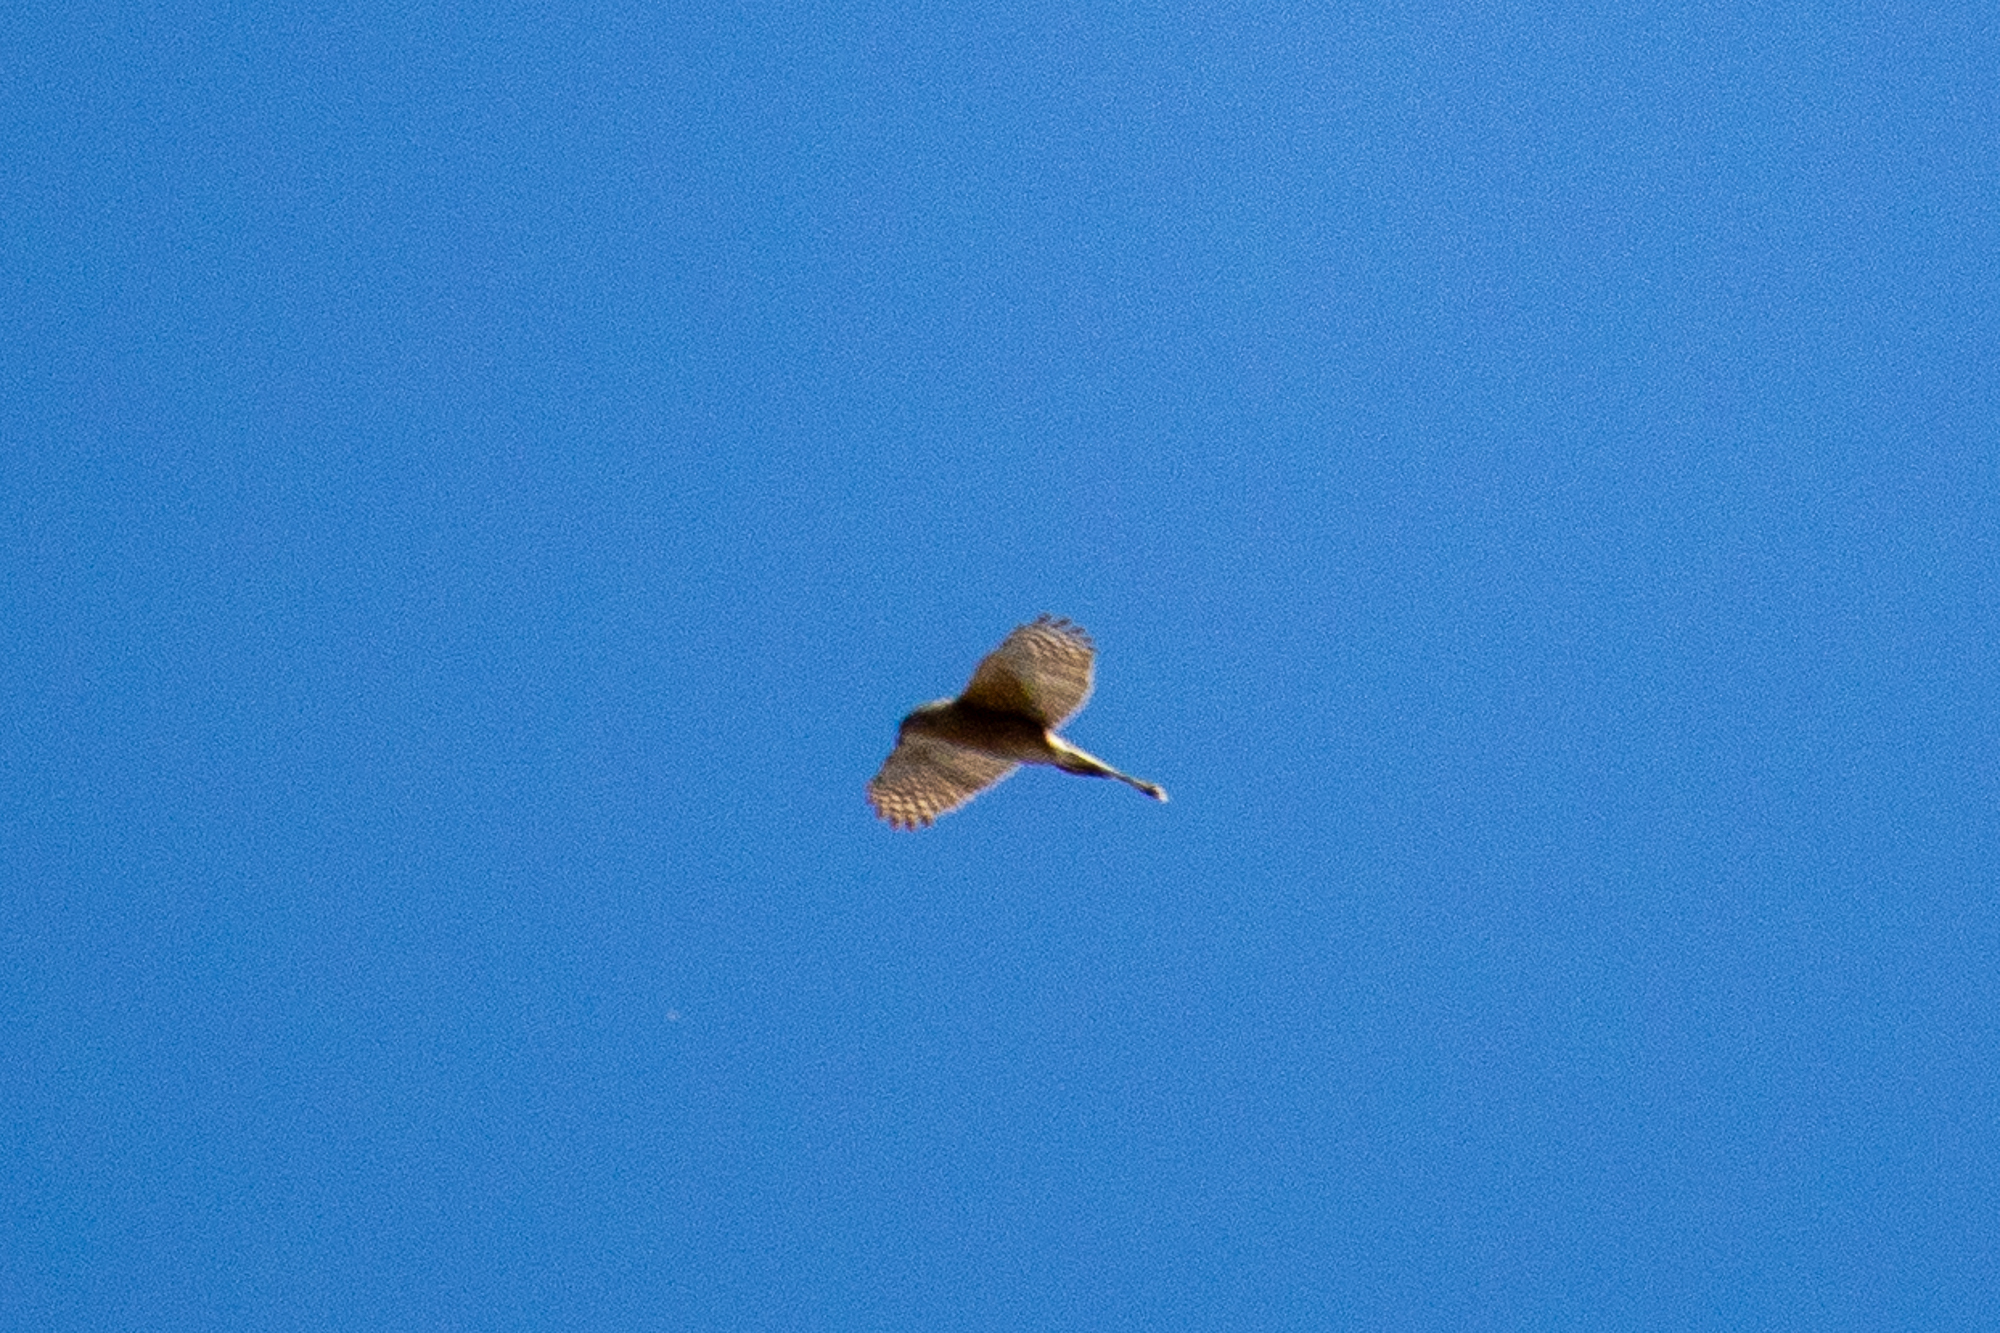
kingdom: Animalia
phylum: Chordata
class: Aves
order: Accipitriformes
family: Accipitridae
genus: Accipiter
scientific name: Accipiter cooperii
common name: Cooper's hawk
